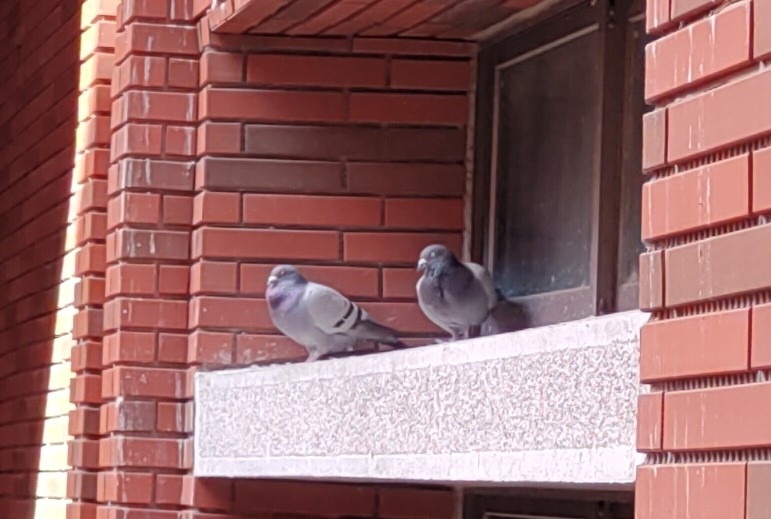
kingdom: Animalia
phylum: Chordata
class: Aves
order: Columbiformes
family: Columbidae
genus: Columba
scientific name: Columba livia
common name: Rock pigeon
